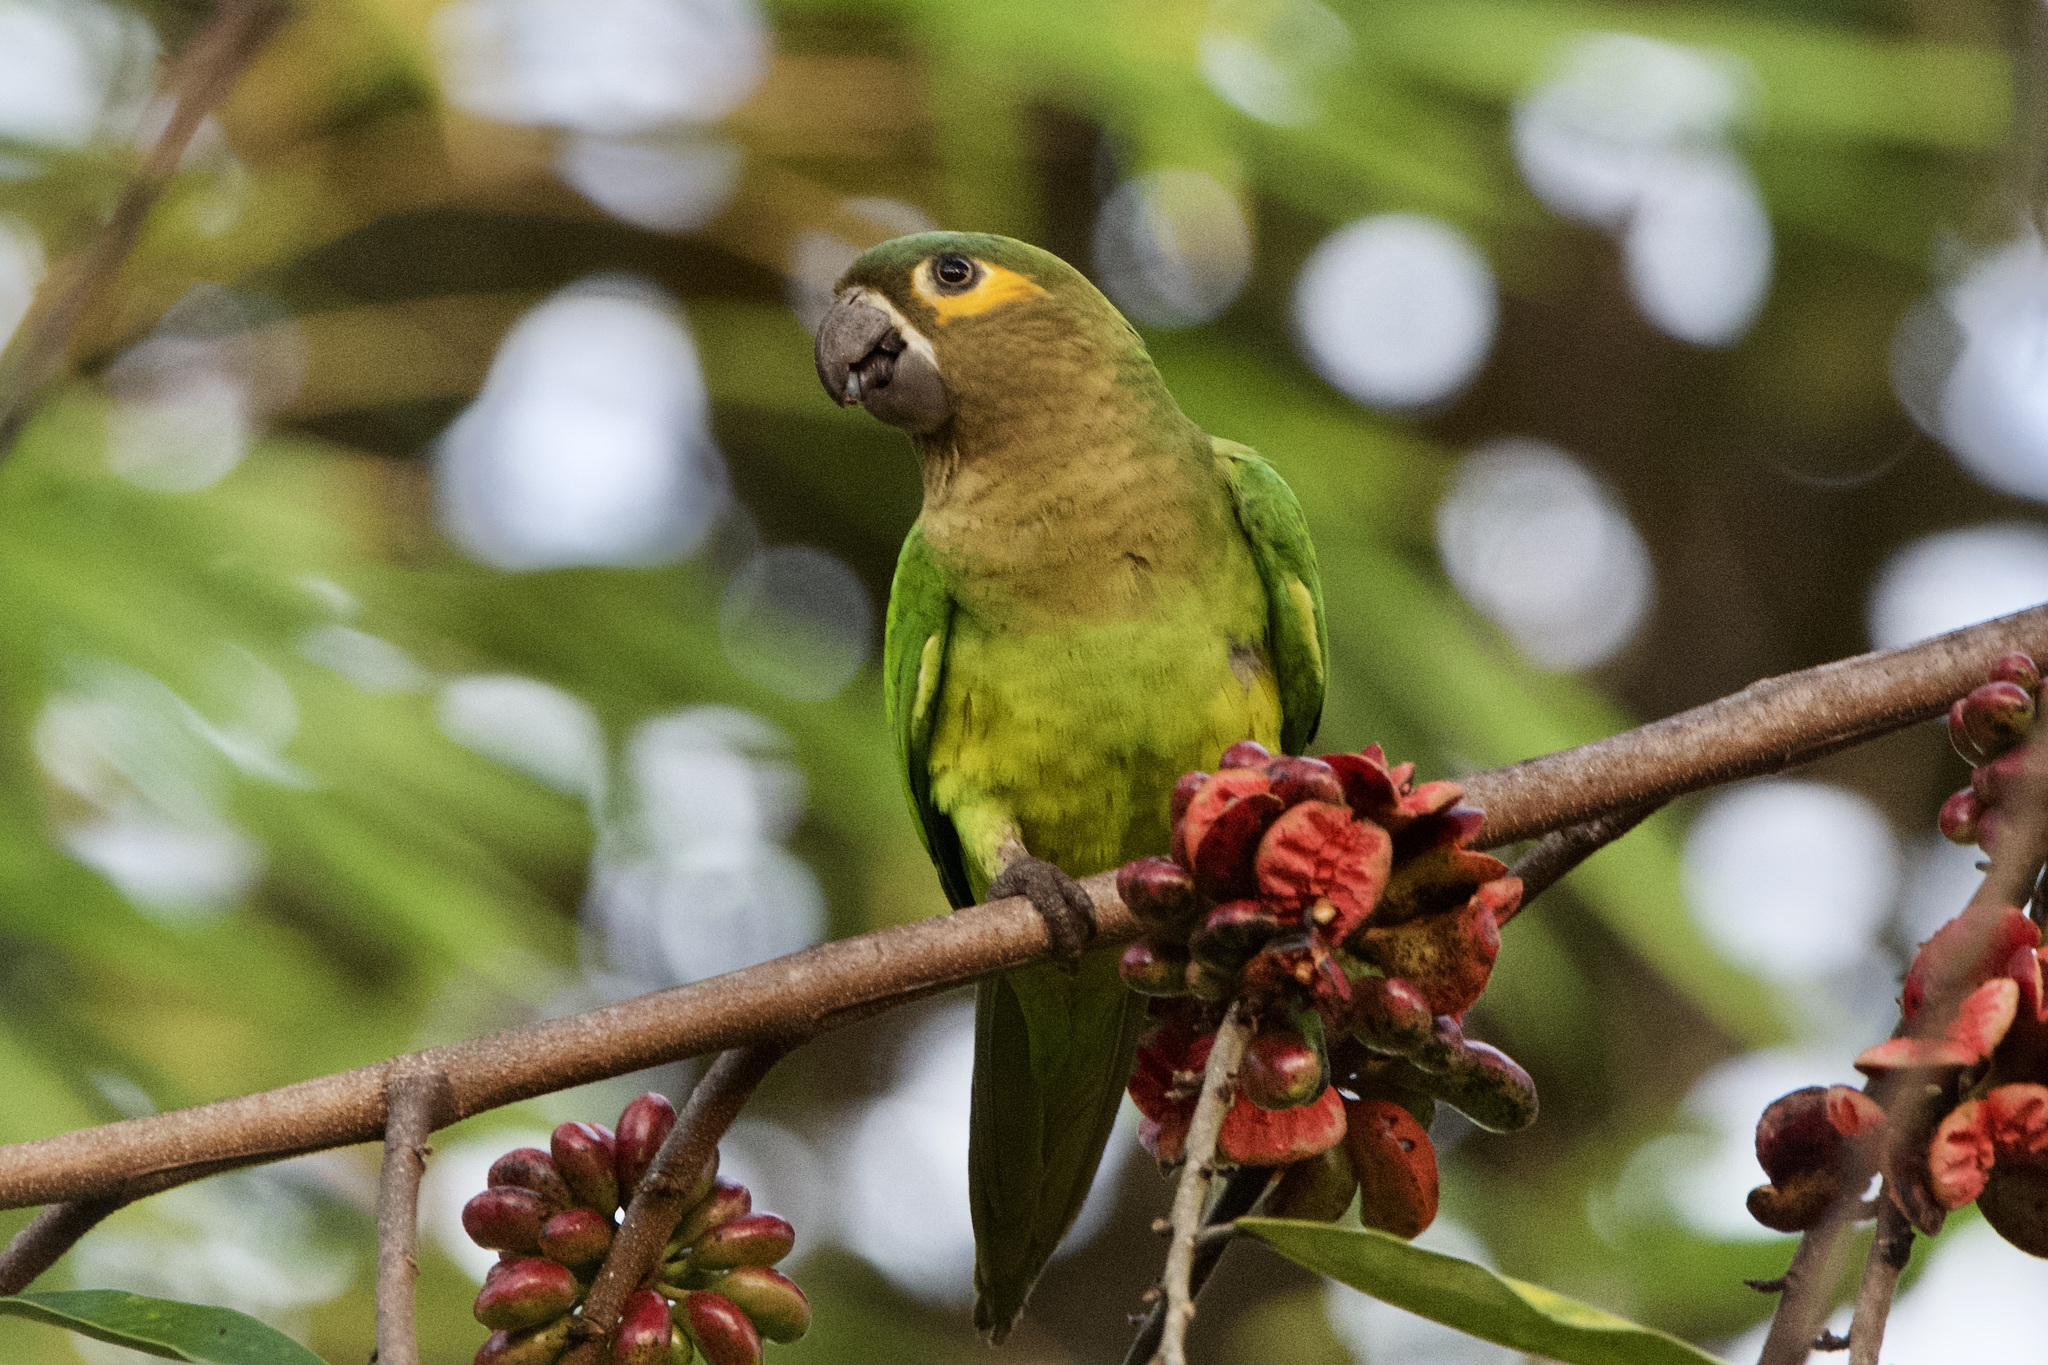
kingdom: Animalia
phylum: Chordata
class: Aves
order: Psittaciformes
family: Psittacidae
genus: Aratinga
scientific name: Aratinga pertinax
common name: Brown-throated parakeet
